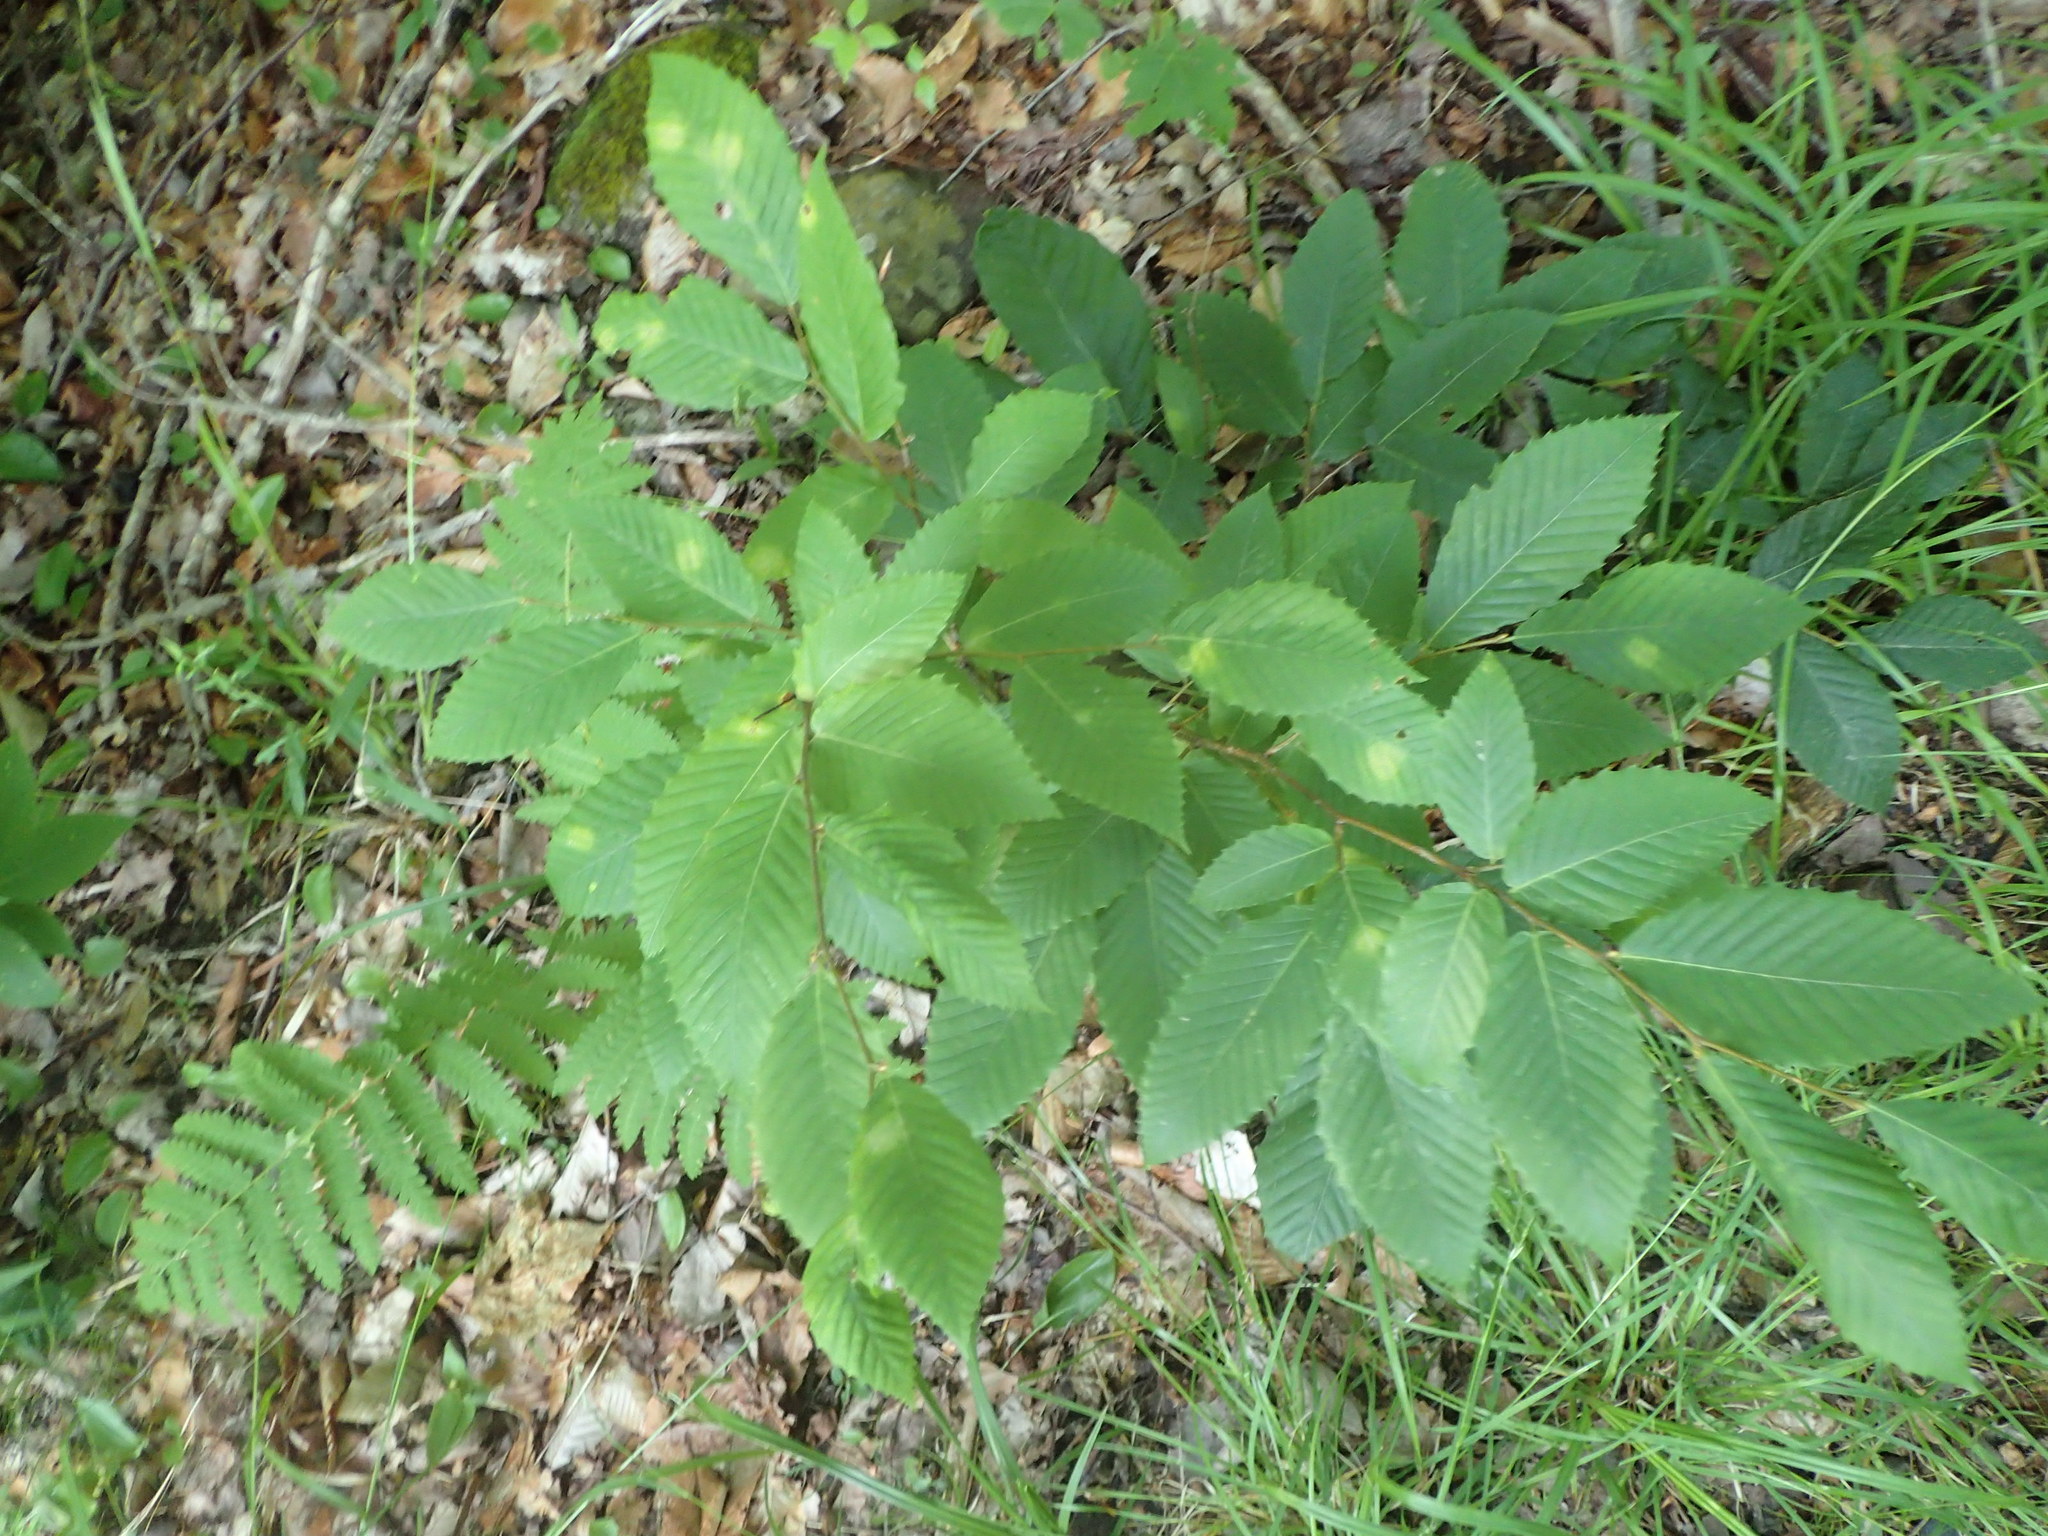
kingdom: Plantae
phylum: Tracheophyta
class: Magnoliopsida
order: Fagales
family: Fagaceae
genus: Fagus
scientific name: Fagus grandifolia
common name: American beech
